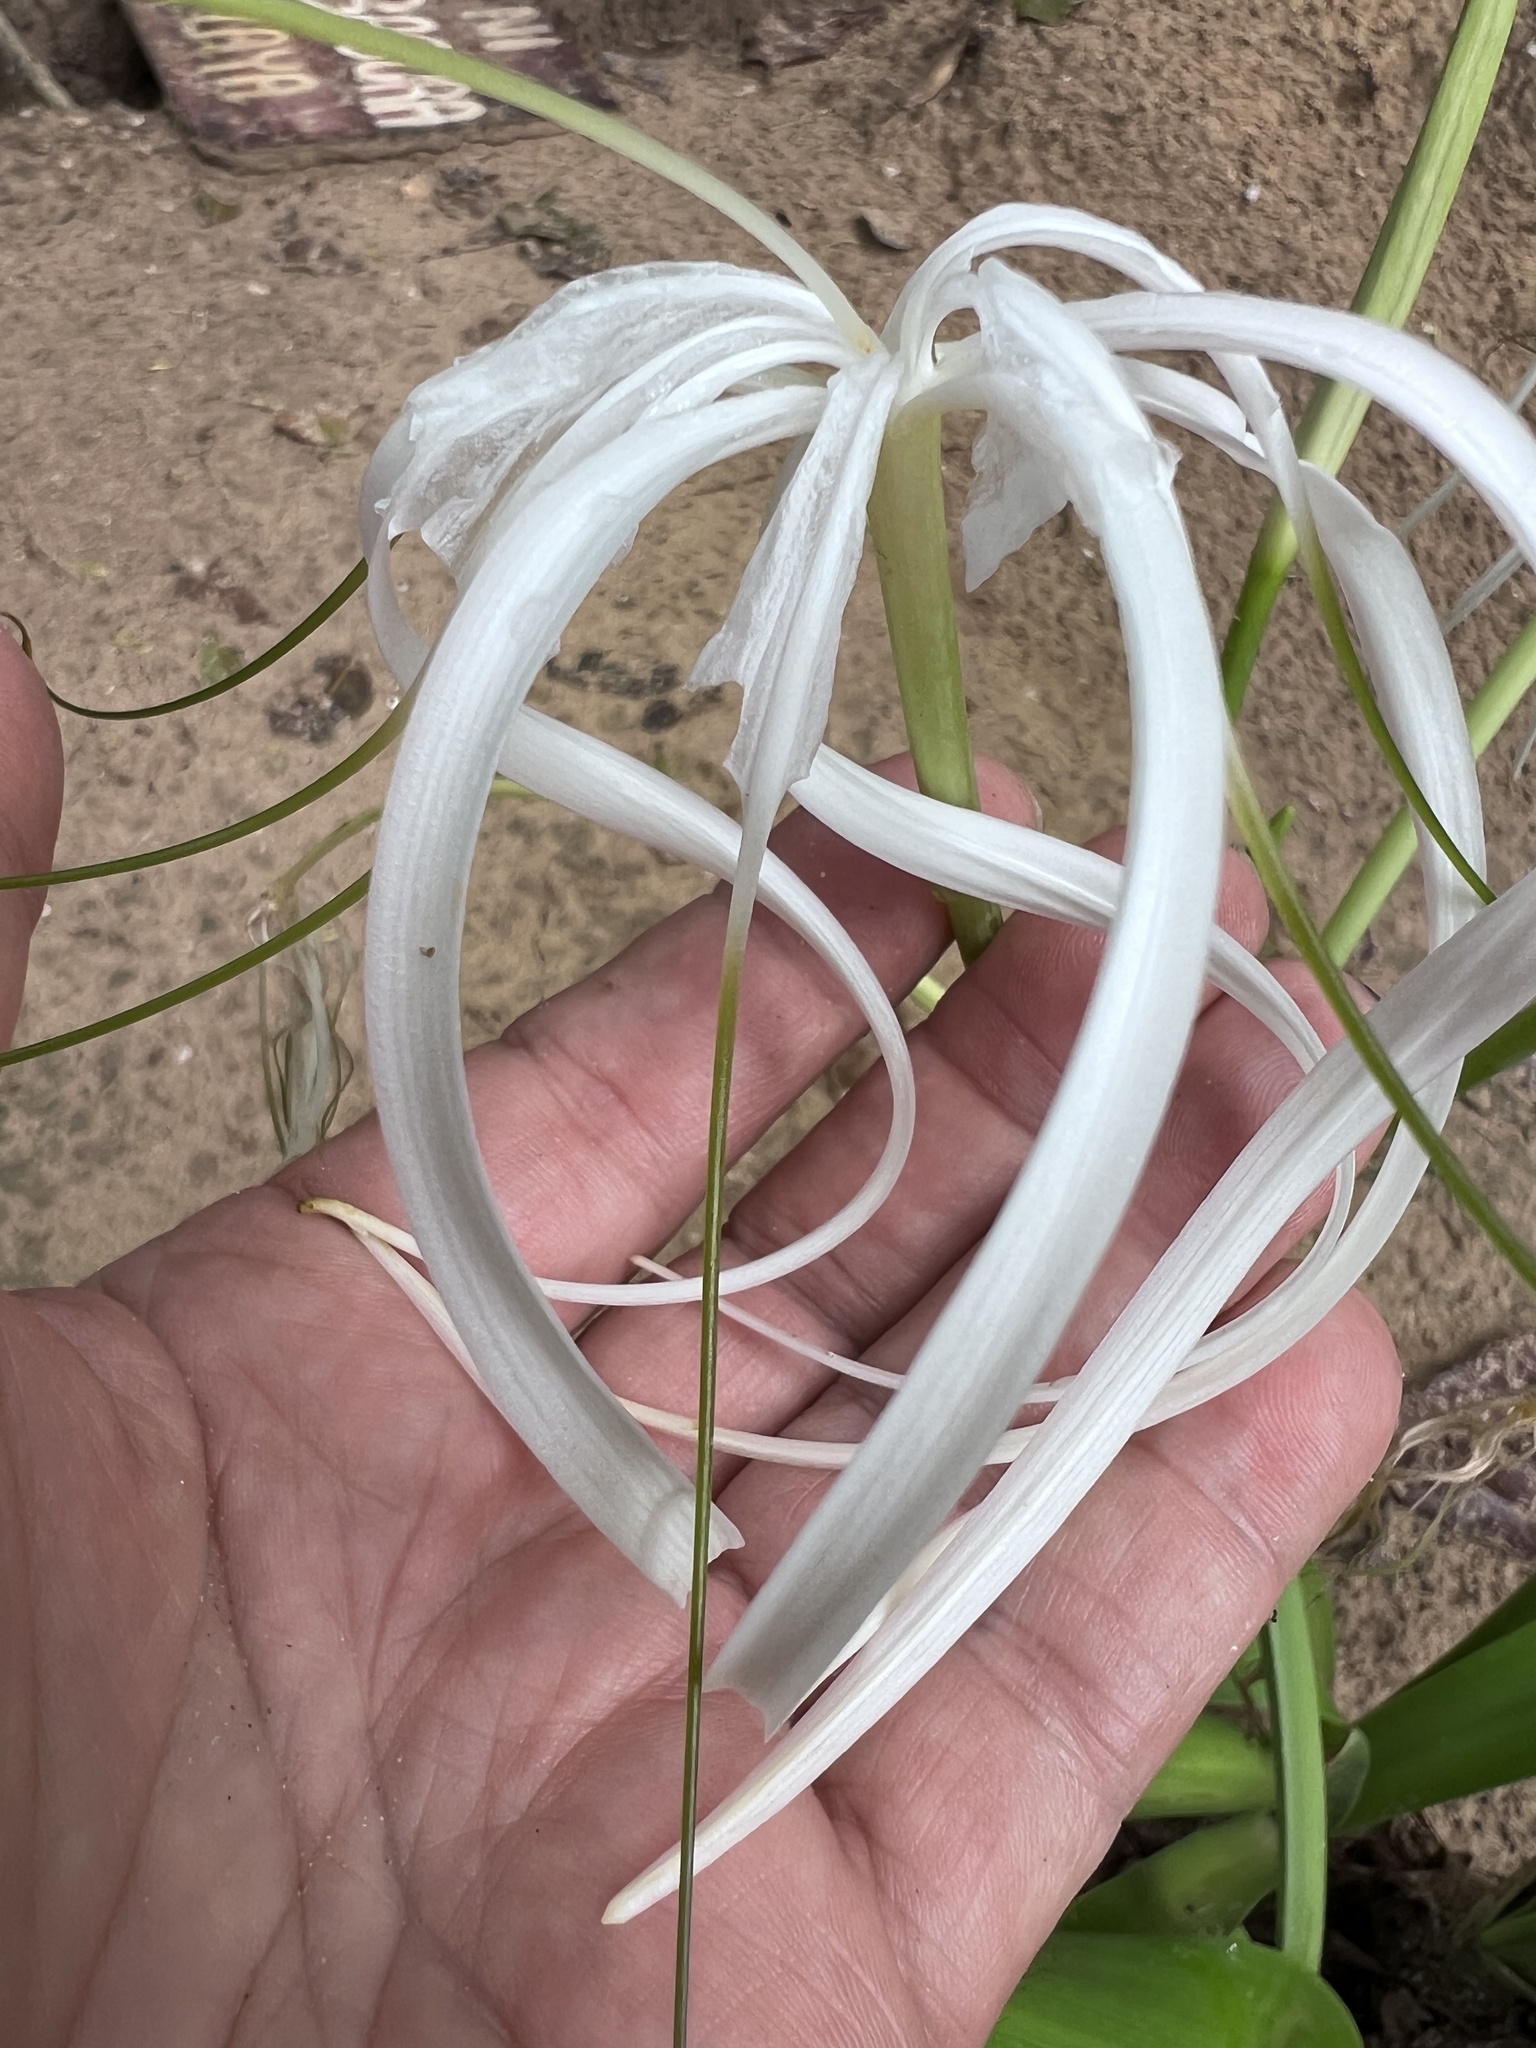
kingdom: Plantae
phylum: Tracheophyta
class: Liliopsida
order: Asparagales
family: Amaryllidaceae
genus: Crinum
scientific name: Crinum erubescens
